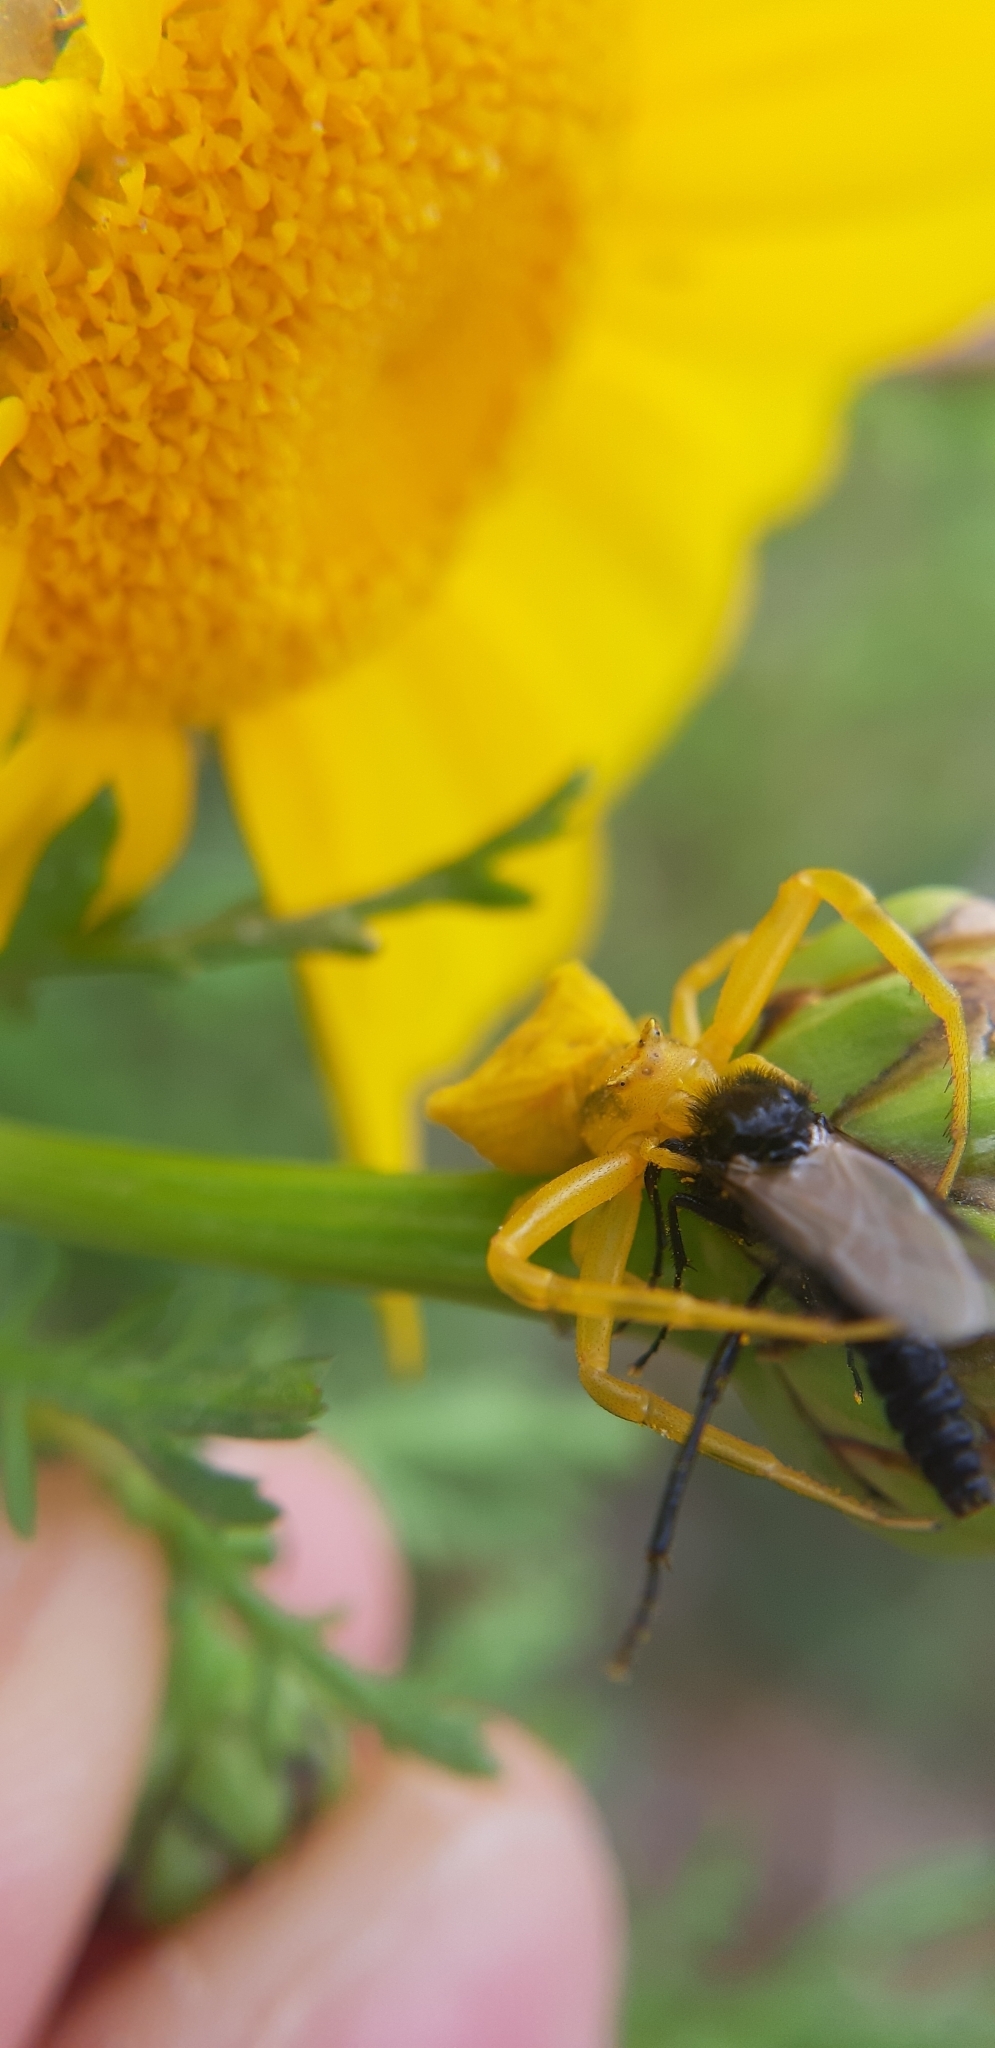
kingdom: Animalia
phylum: Arthropoda
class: Arachnida
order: Araneae
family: Thomisidae
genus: Thomisus
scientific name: Thomisus onustus
